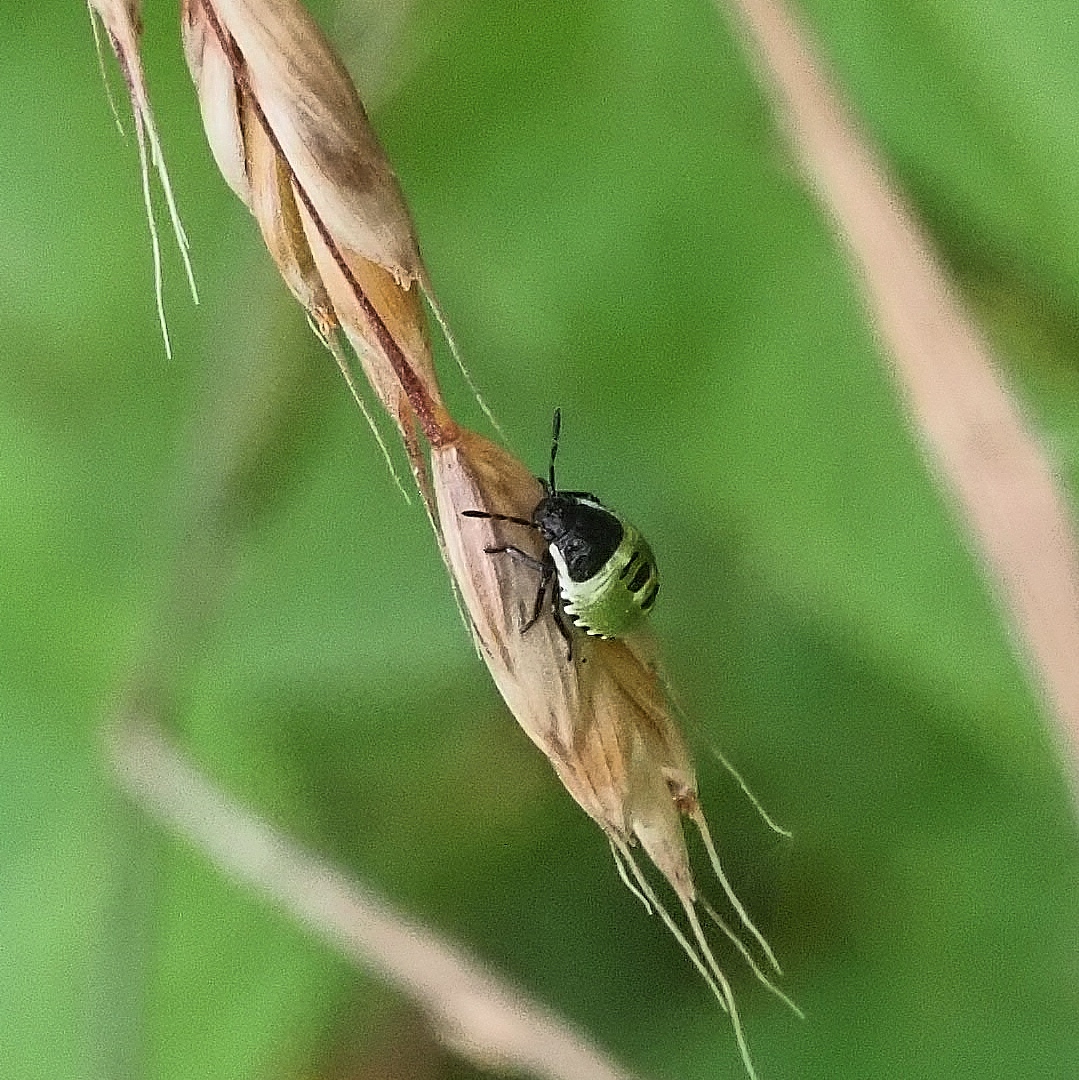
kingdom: Animalia
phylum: Arthropoda
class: Insecta
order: Hemiptera
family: Pentatomidae
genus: Palomena
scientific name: Palomena prasina
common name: Green shieldbug
